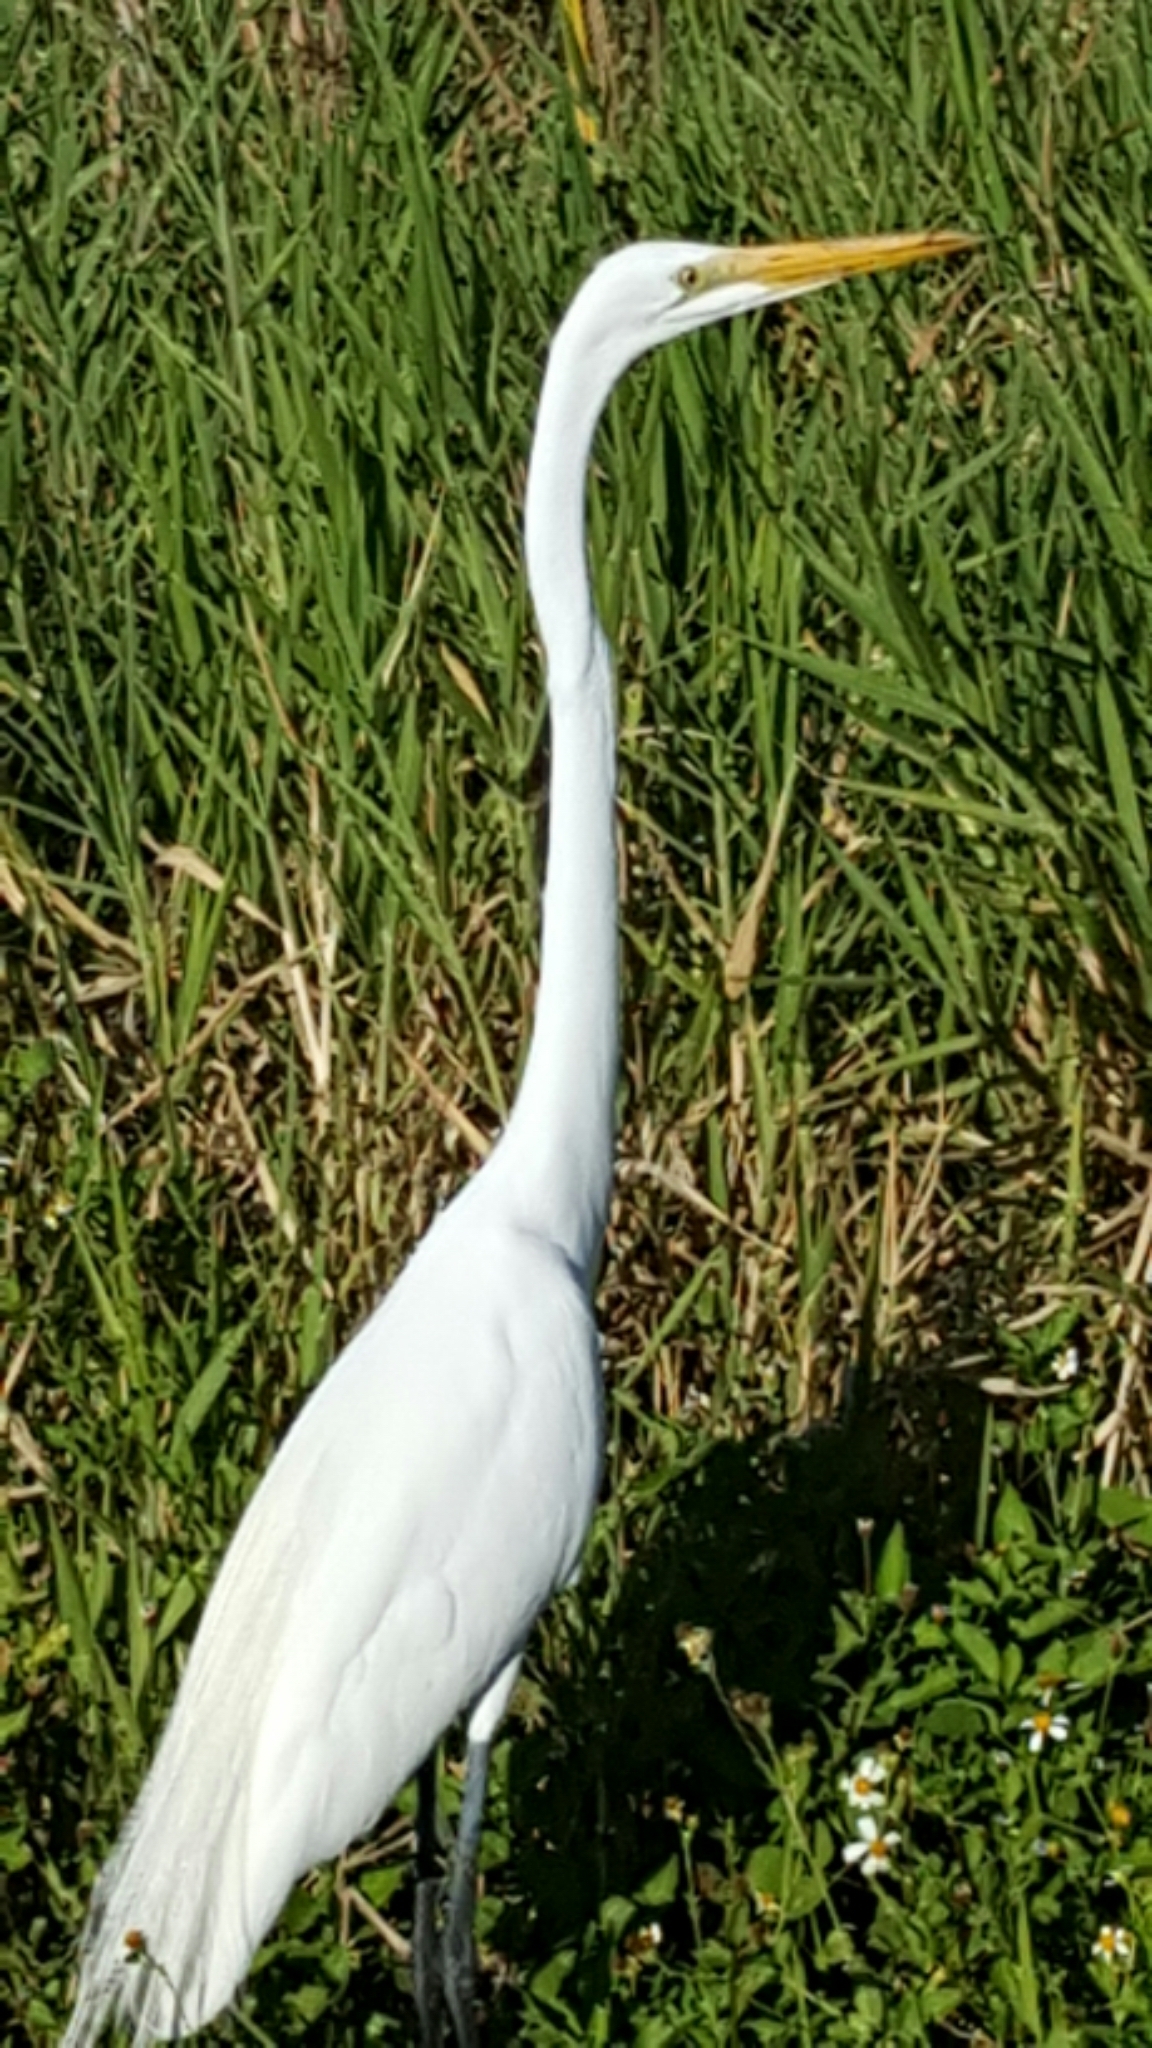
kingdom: Animalia
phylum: Chordata
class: Aves
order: Pelecaniformes
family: Ardeidae
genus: Ardea
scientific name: Ardea alba
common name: Great egret
